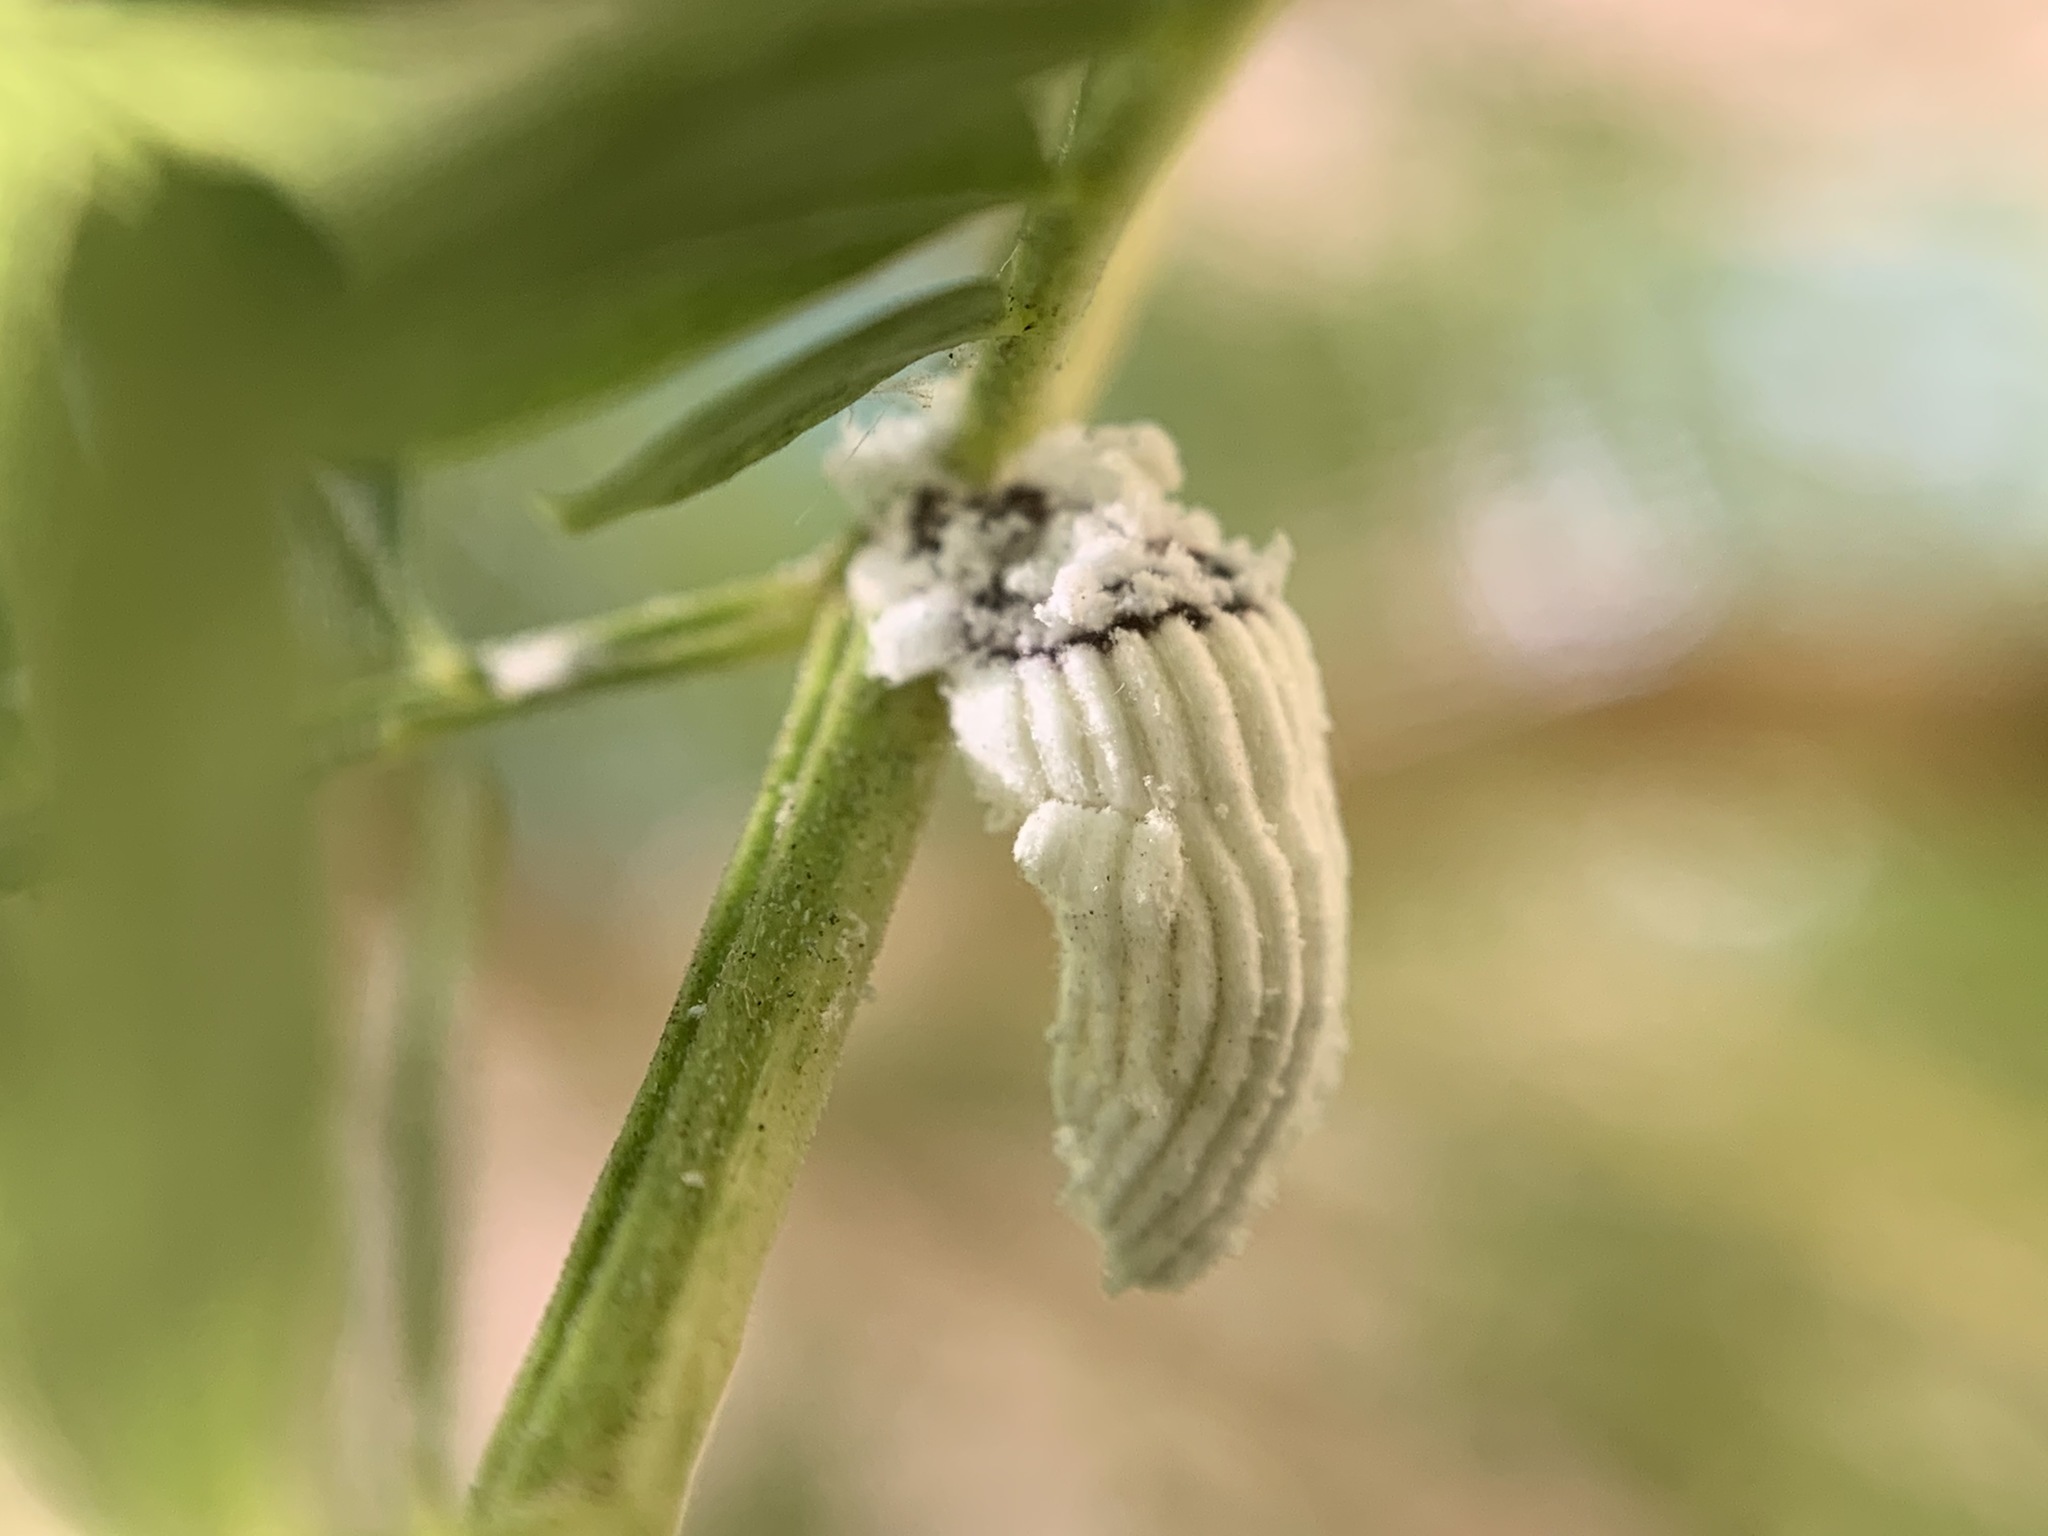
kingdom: Animalia
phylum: Arthropoda
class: Insecta
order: Hemiptera
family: Margarodidae
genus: Icerya
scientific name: Icerya purchasi
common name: Cottony cushion scale
